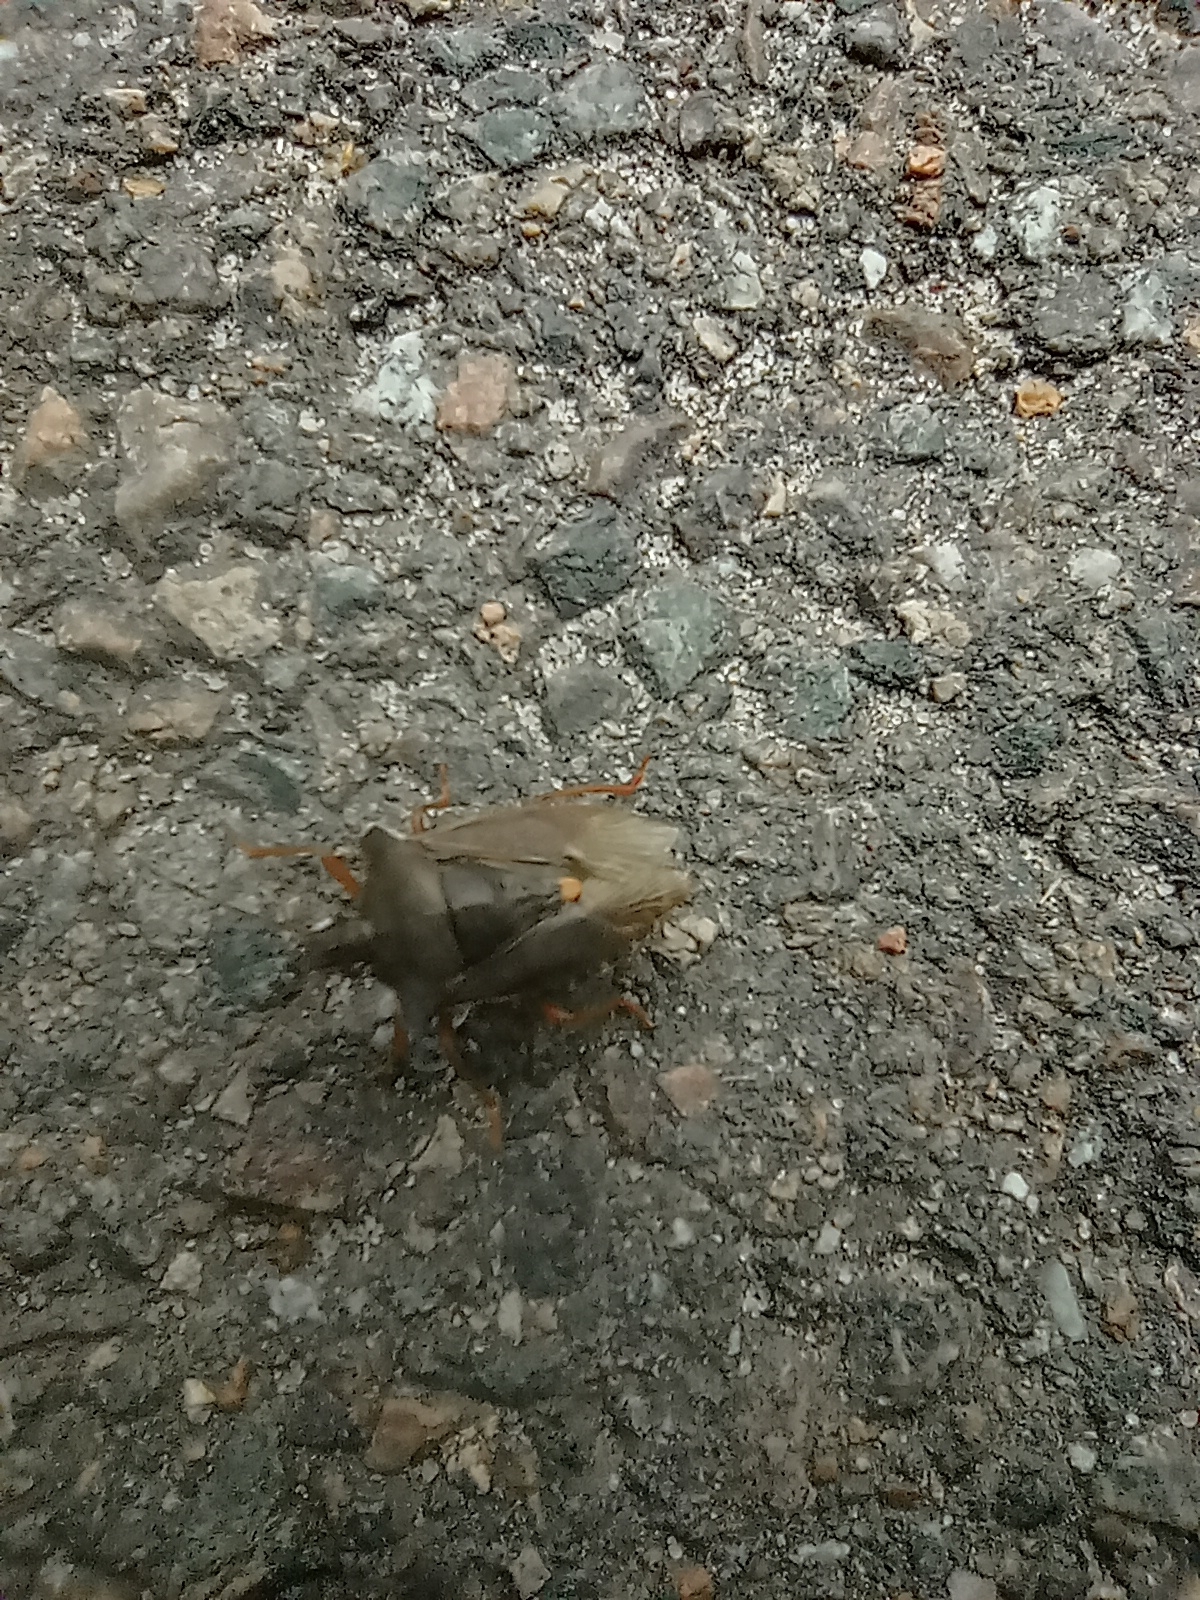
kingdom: Animalia
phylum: Arthropoda
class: Insecta
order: Hemiptera
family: Pentatomidae
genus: Pentatoma
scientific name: Pentatoma rufipes
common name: Forest bug
